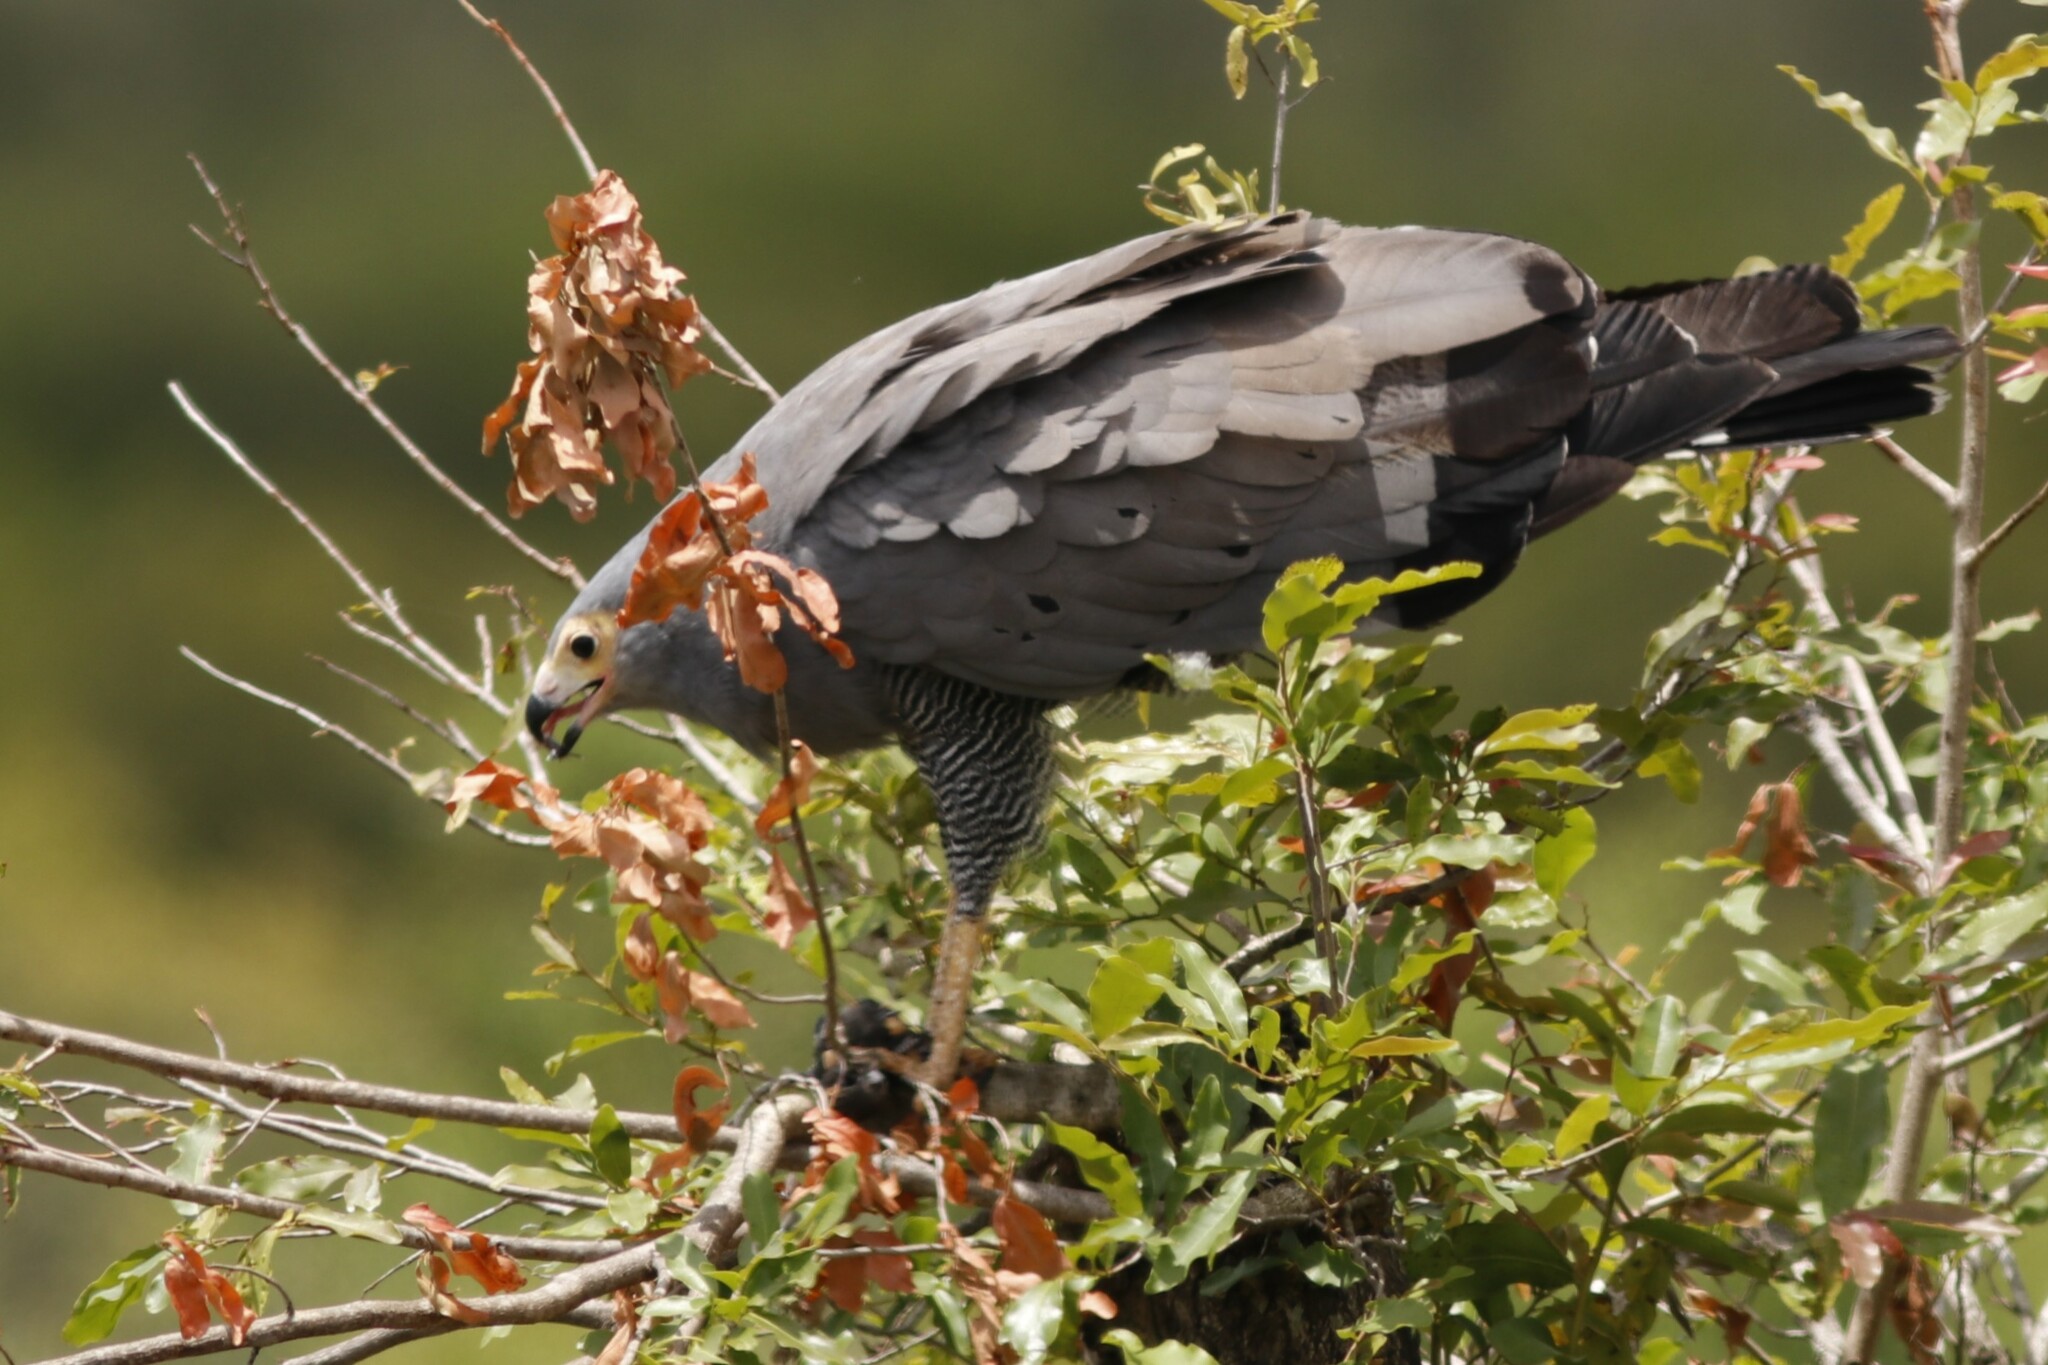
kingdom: Animalia
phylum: Chordata
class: Aves
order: Accipitriformes
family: Accipitridae
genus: Polyboroides
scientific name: Polyboroides typus
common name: African harrier-hawk
